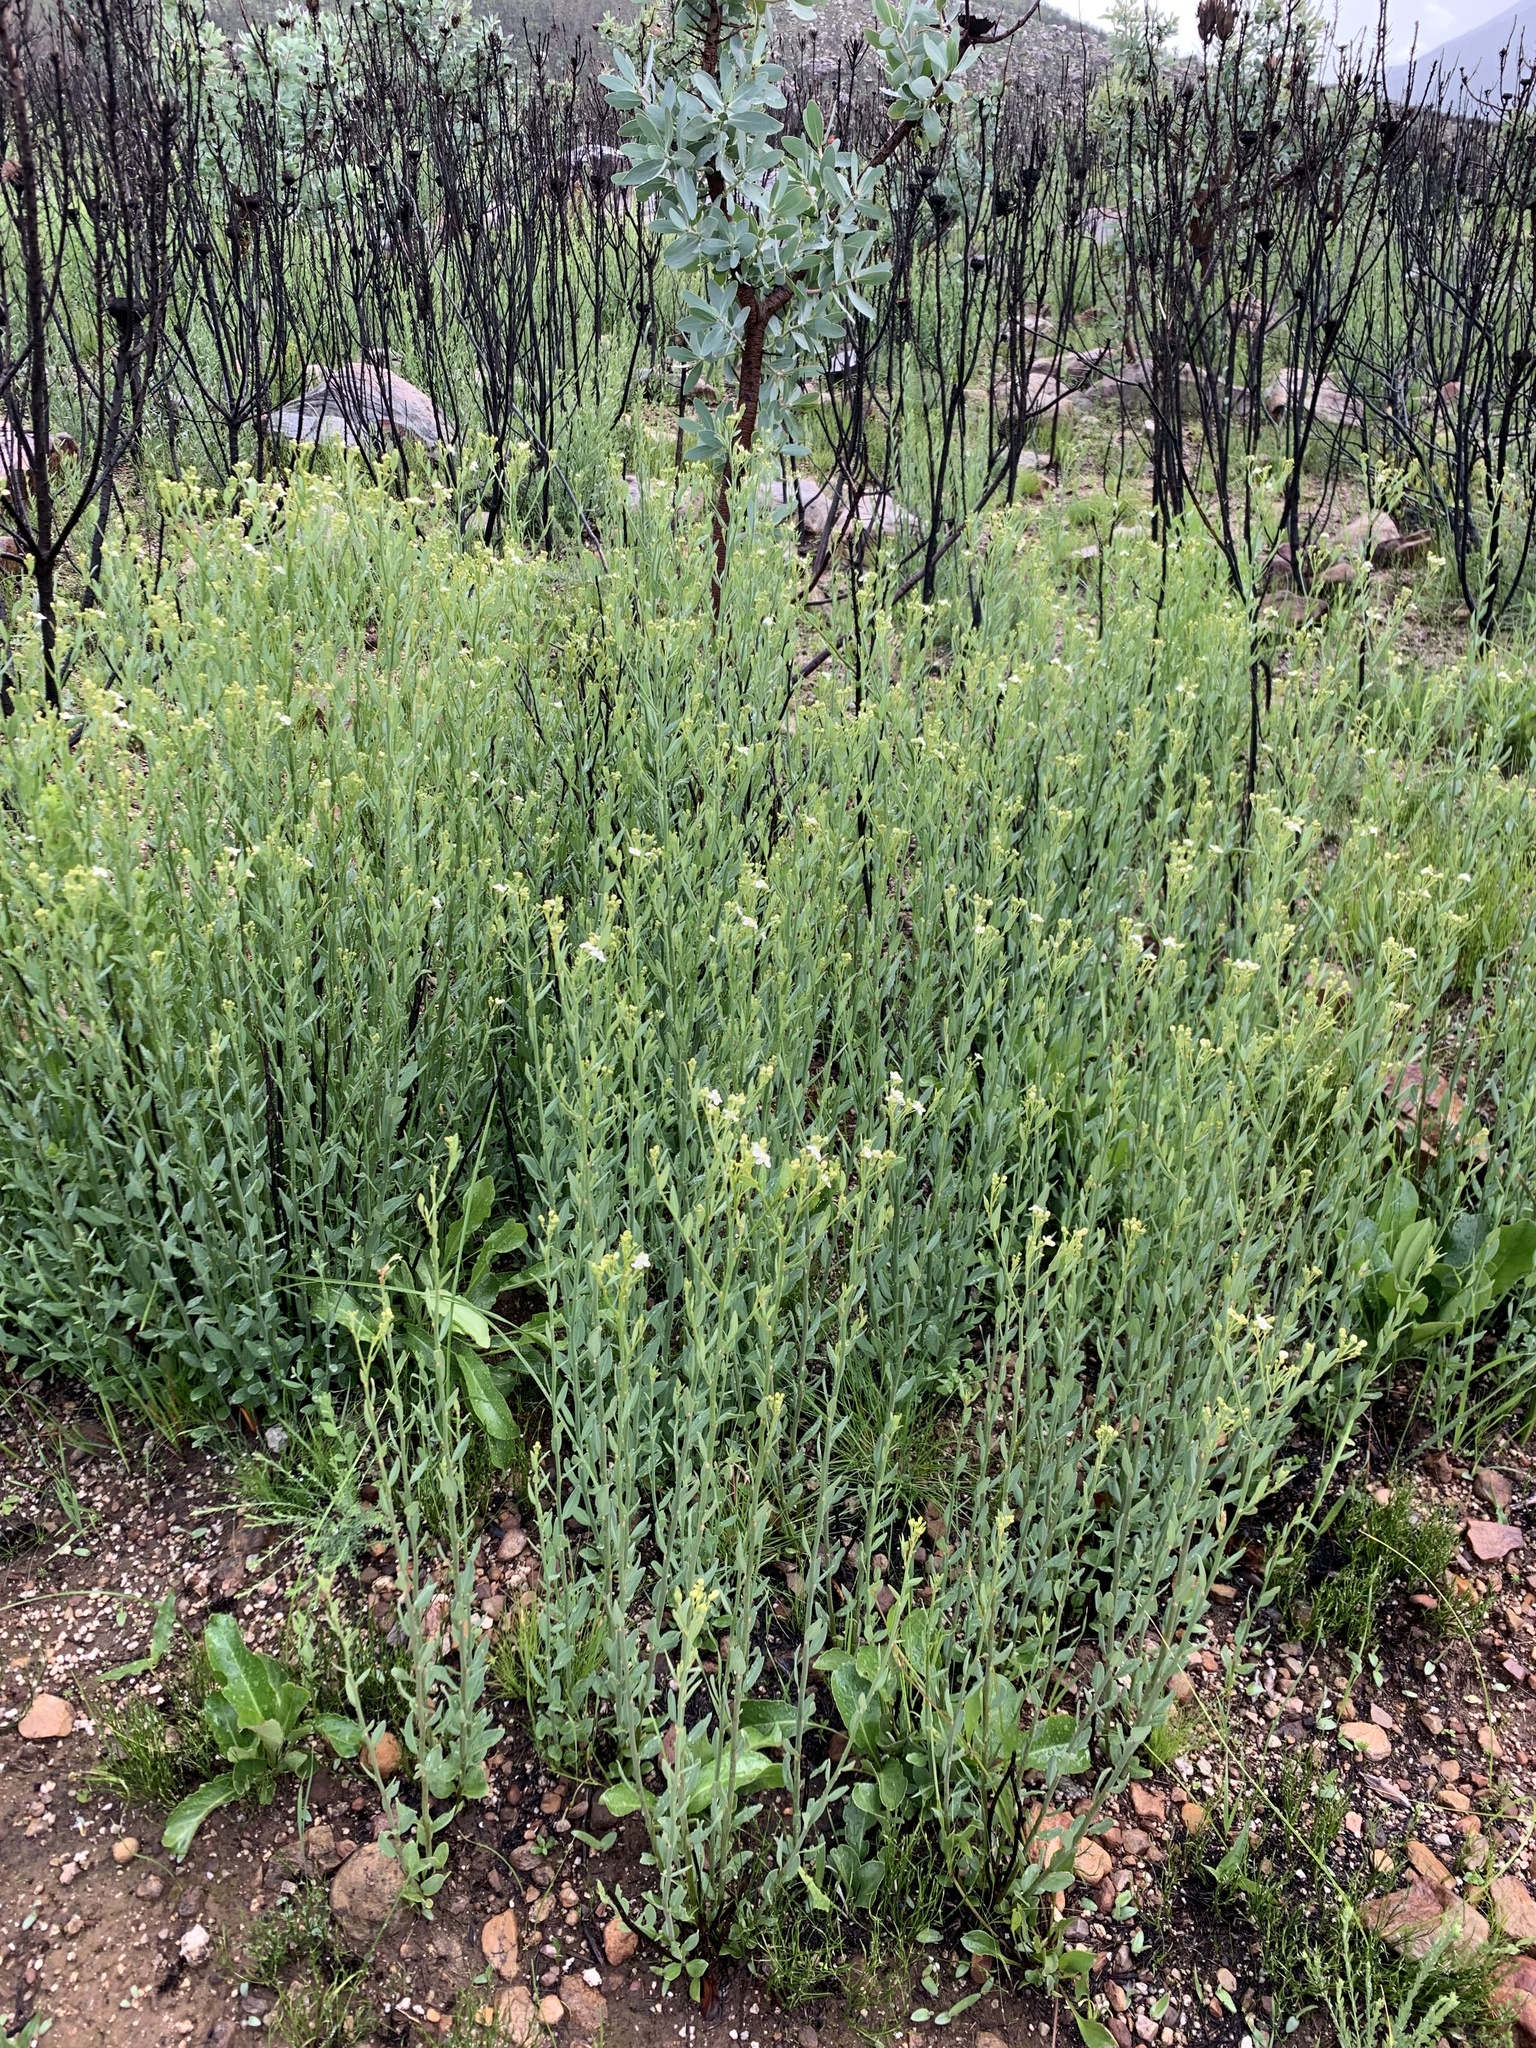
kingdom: Plantae
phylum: Tracheophyta
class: Magnoliopsida
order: Solanales
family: Montiniaceae
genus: Montinia
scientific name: Montinia caryophyllacea
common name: Wild clove-bush
